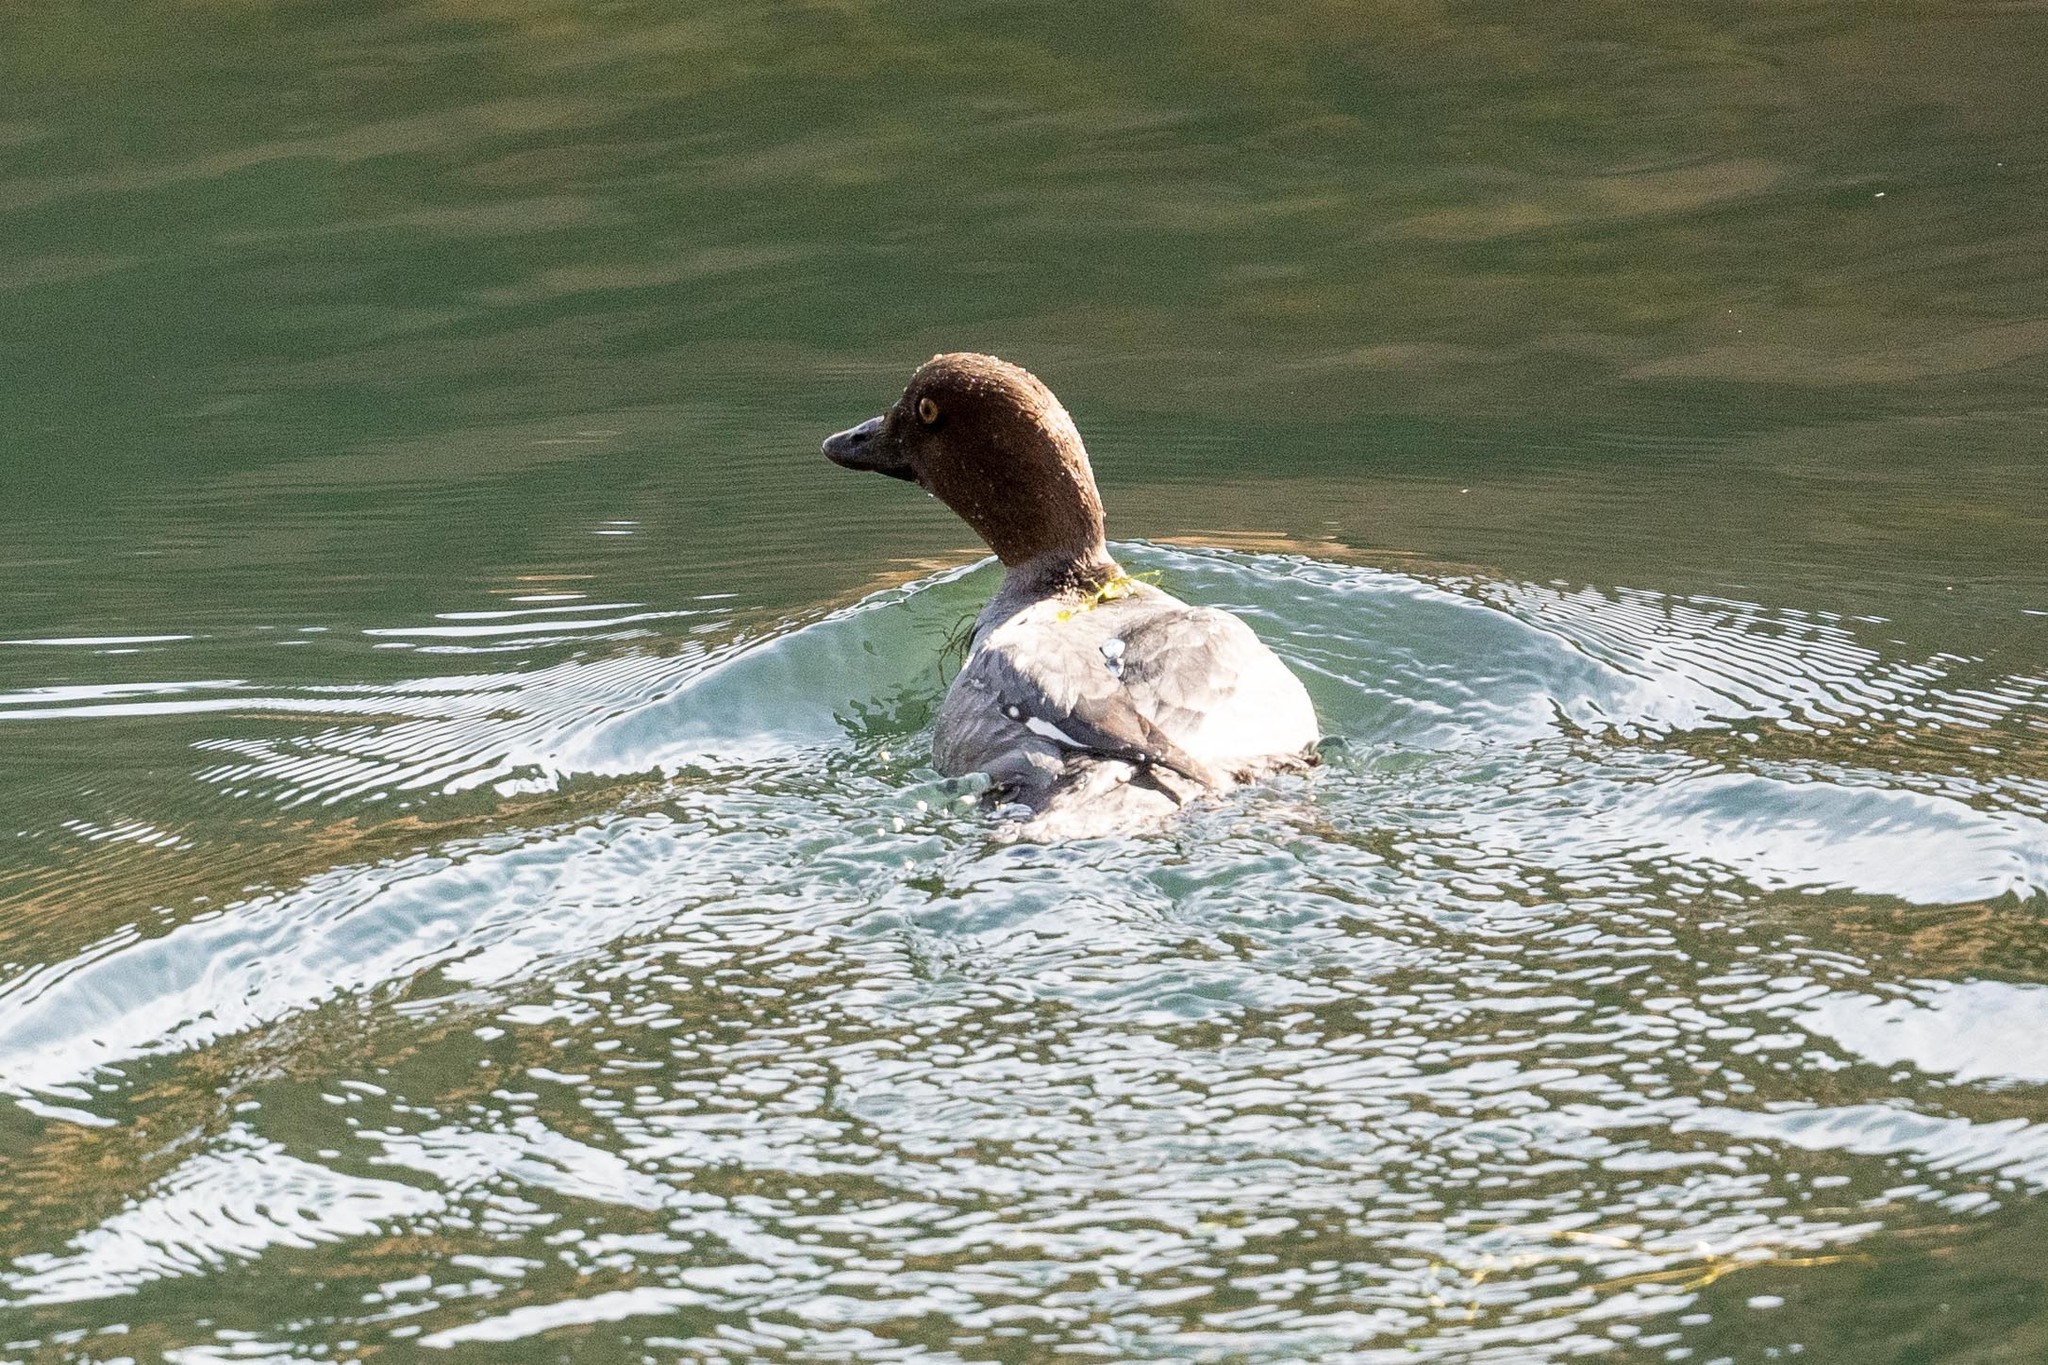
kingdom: Animalia
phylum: Chordata
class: Aves
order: Anseriformes
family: Anatidae
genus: Bucephala
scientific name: Bucephala clangula
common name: Common goldeneye
